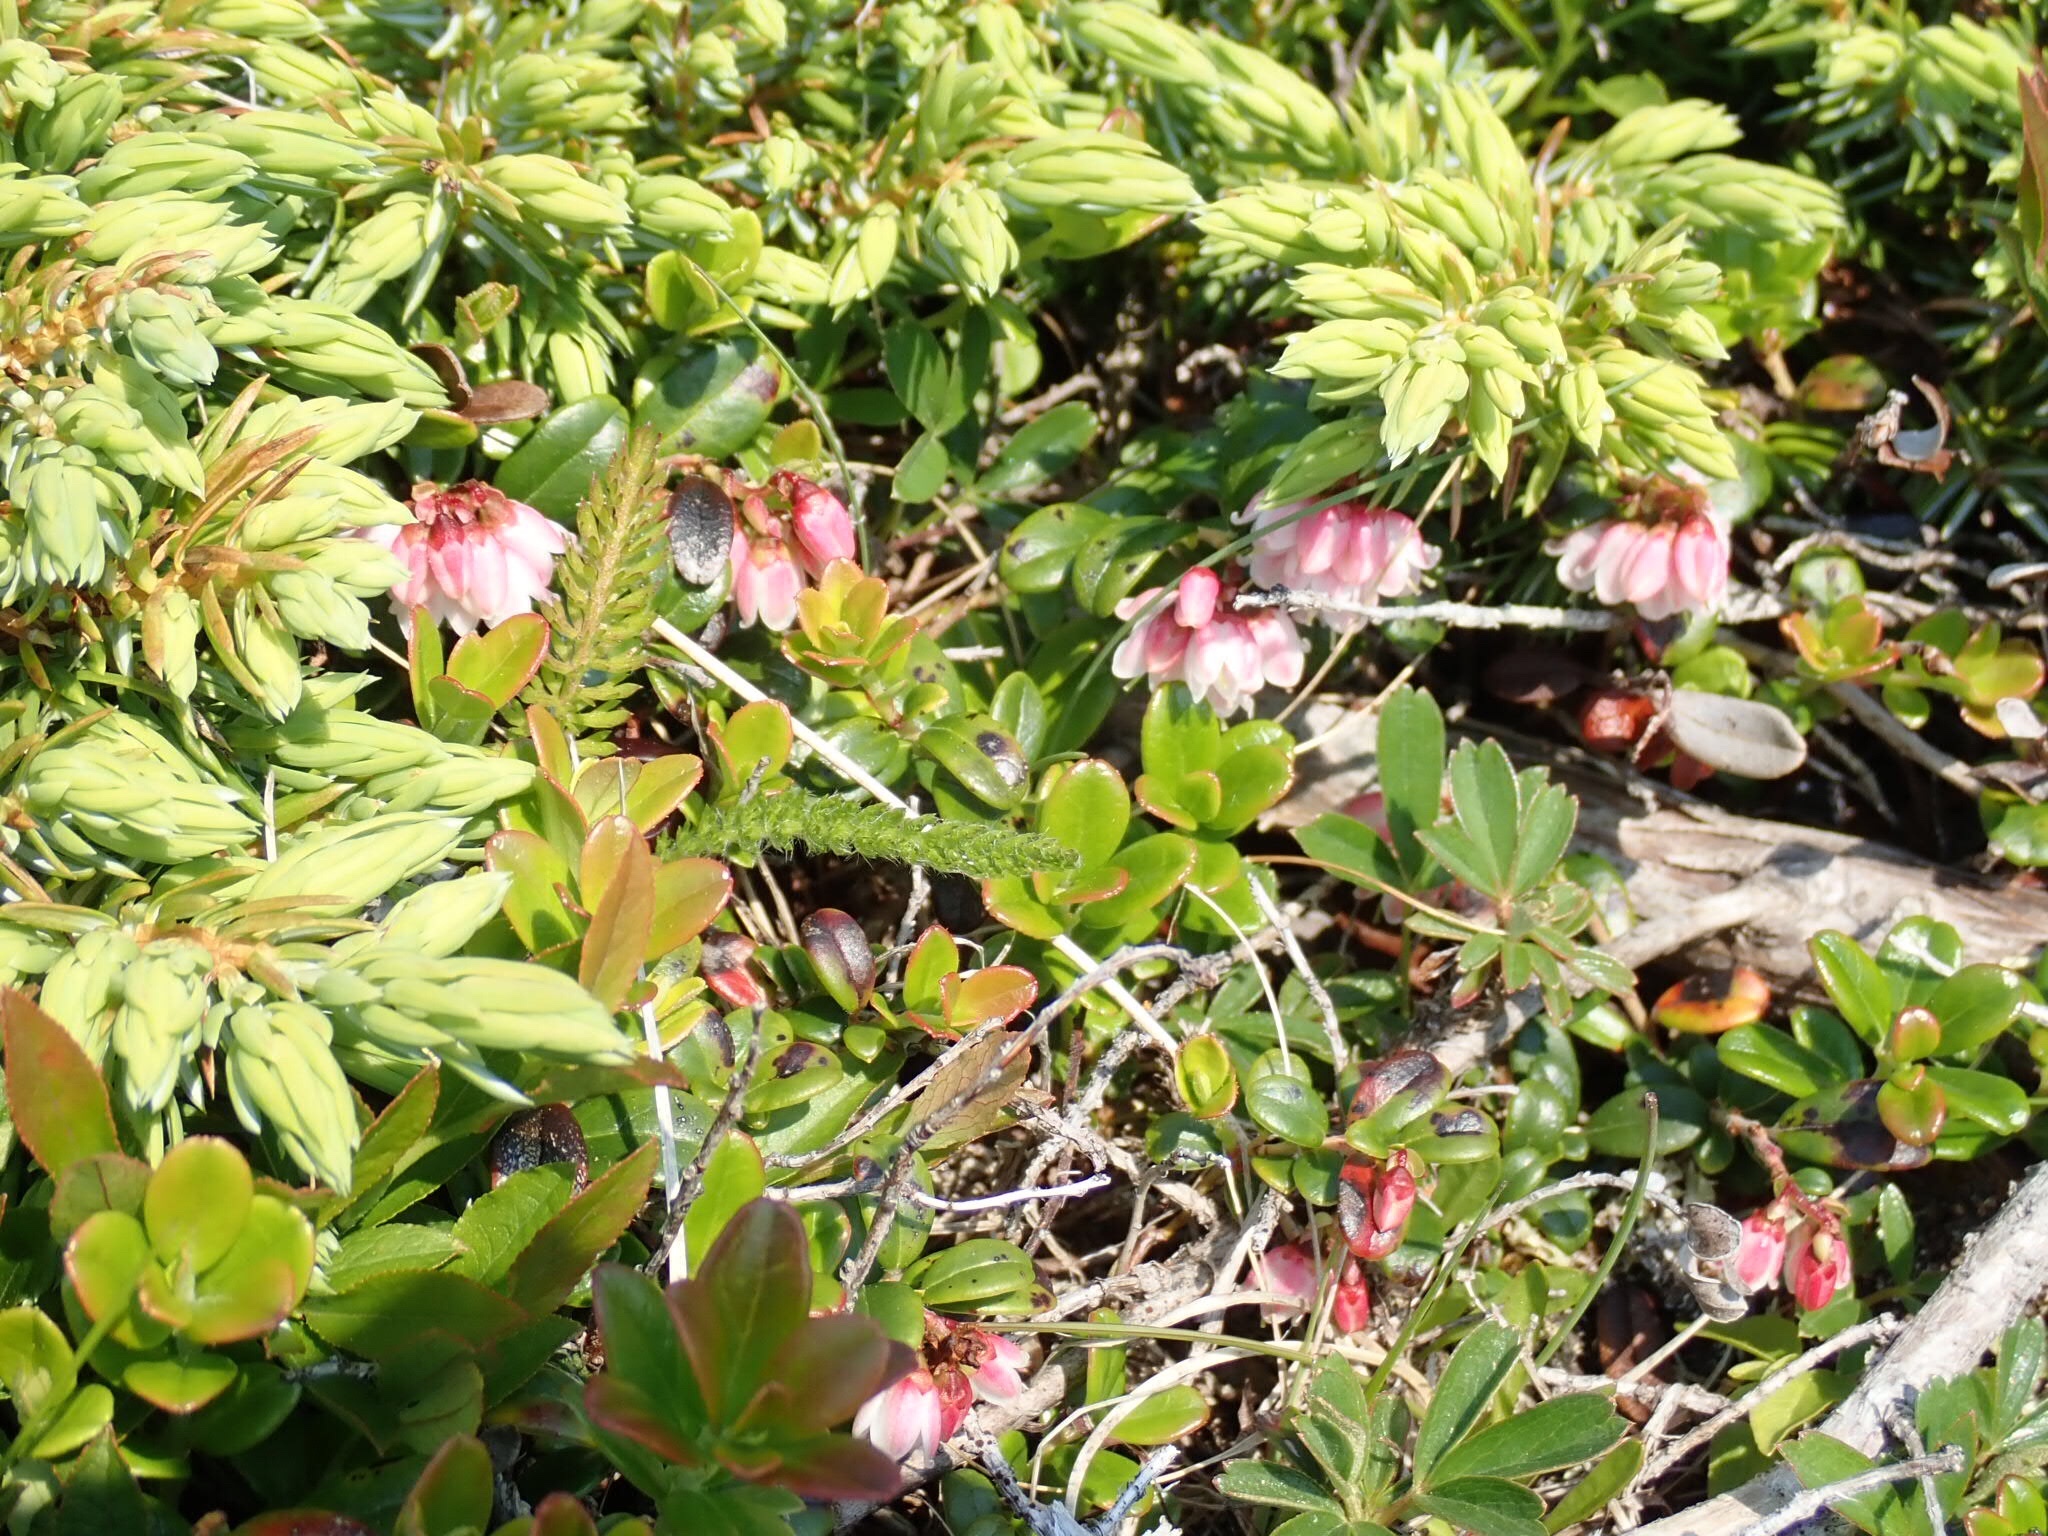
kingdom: Plantae
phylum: Tracheophyta
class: Magnoliopsida
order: Ericales
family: Ericaceae
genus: Vaccinium
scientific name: Vaccinium vitis-idaea
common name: Cowberry
